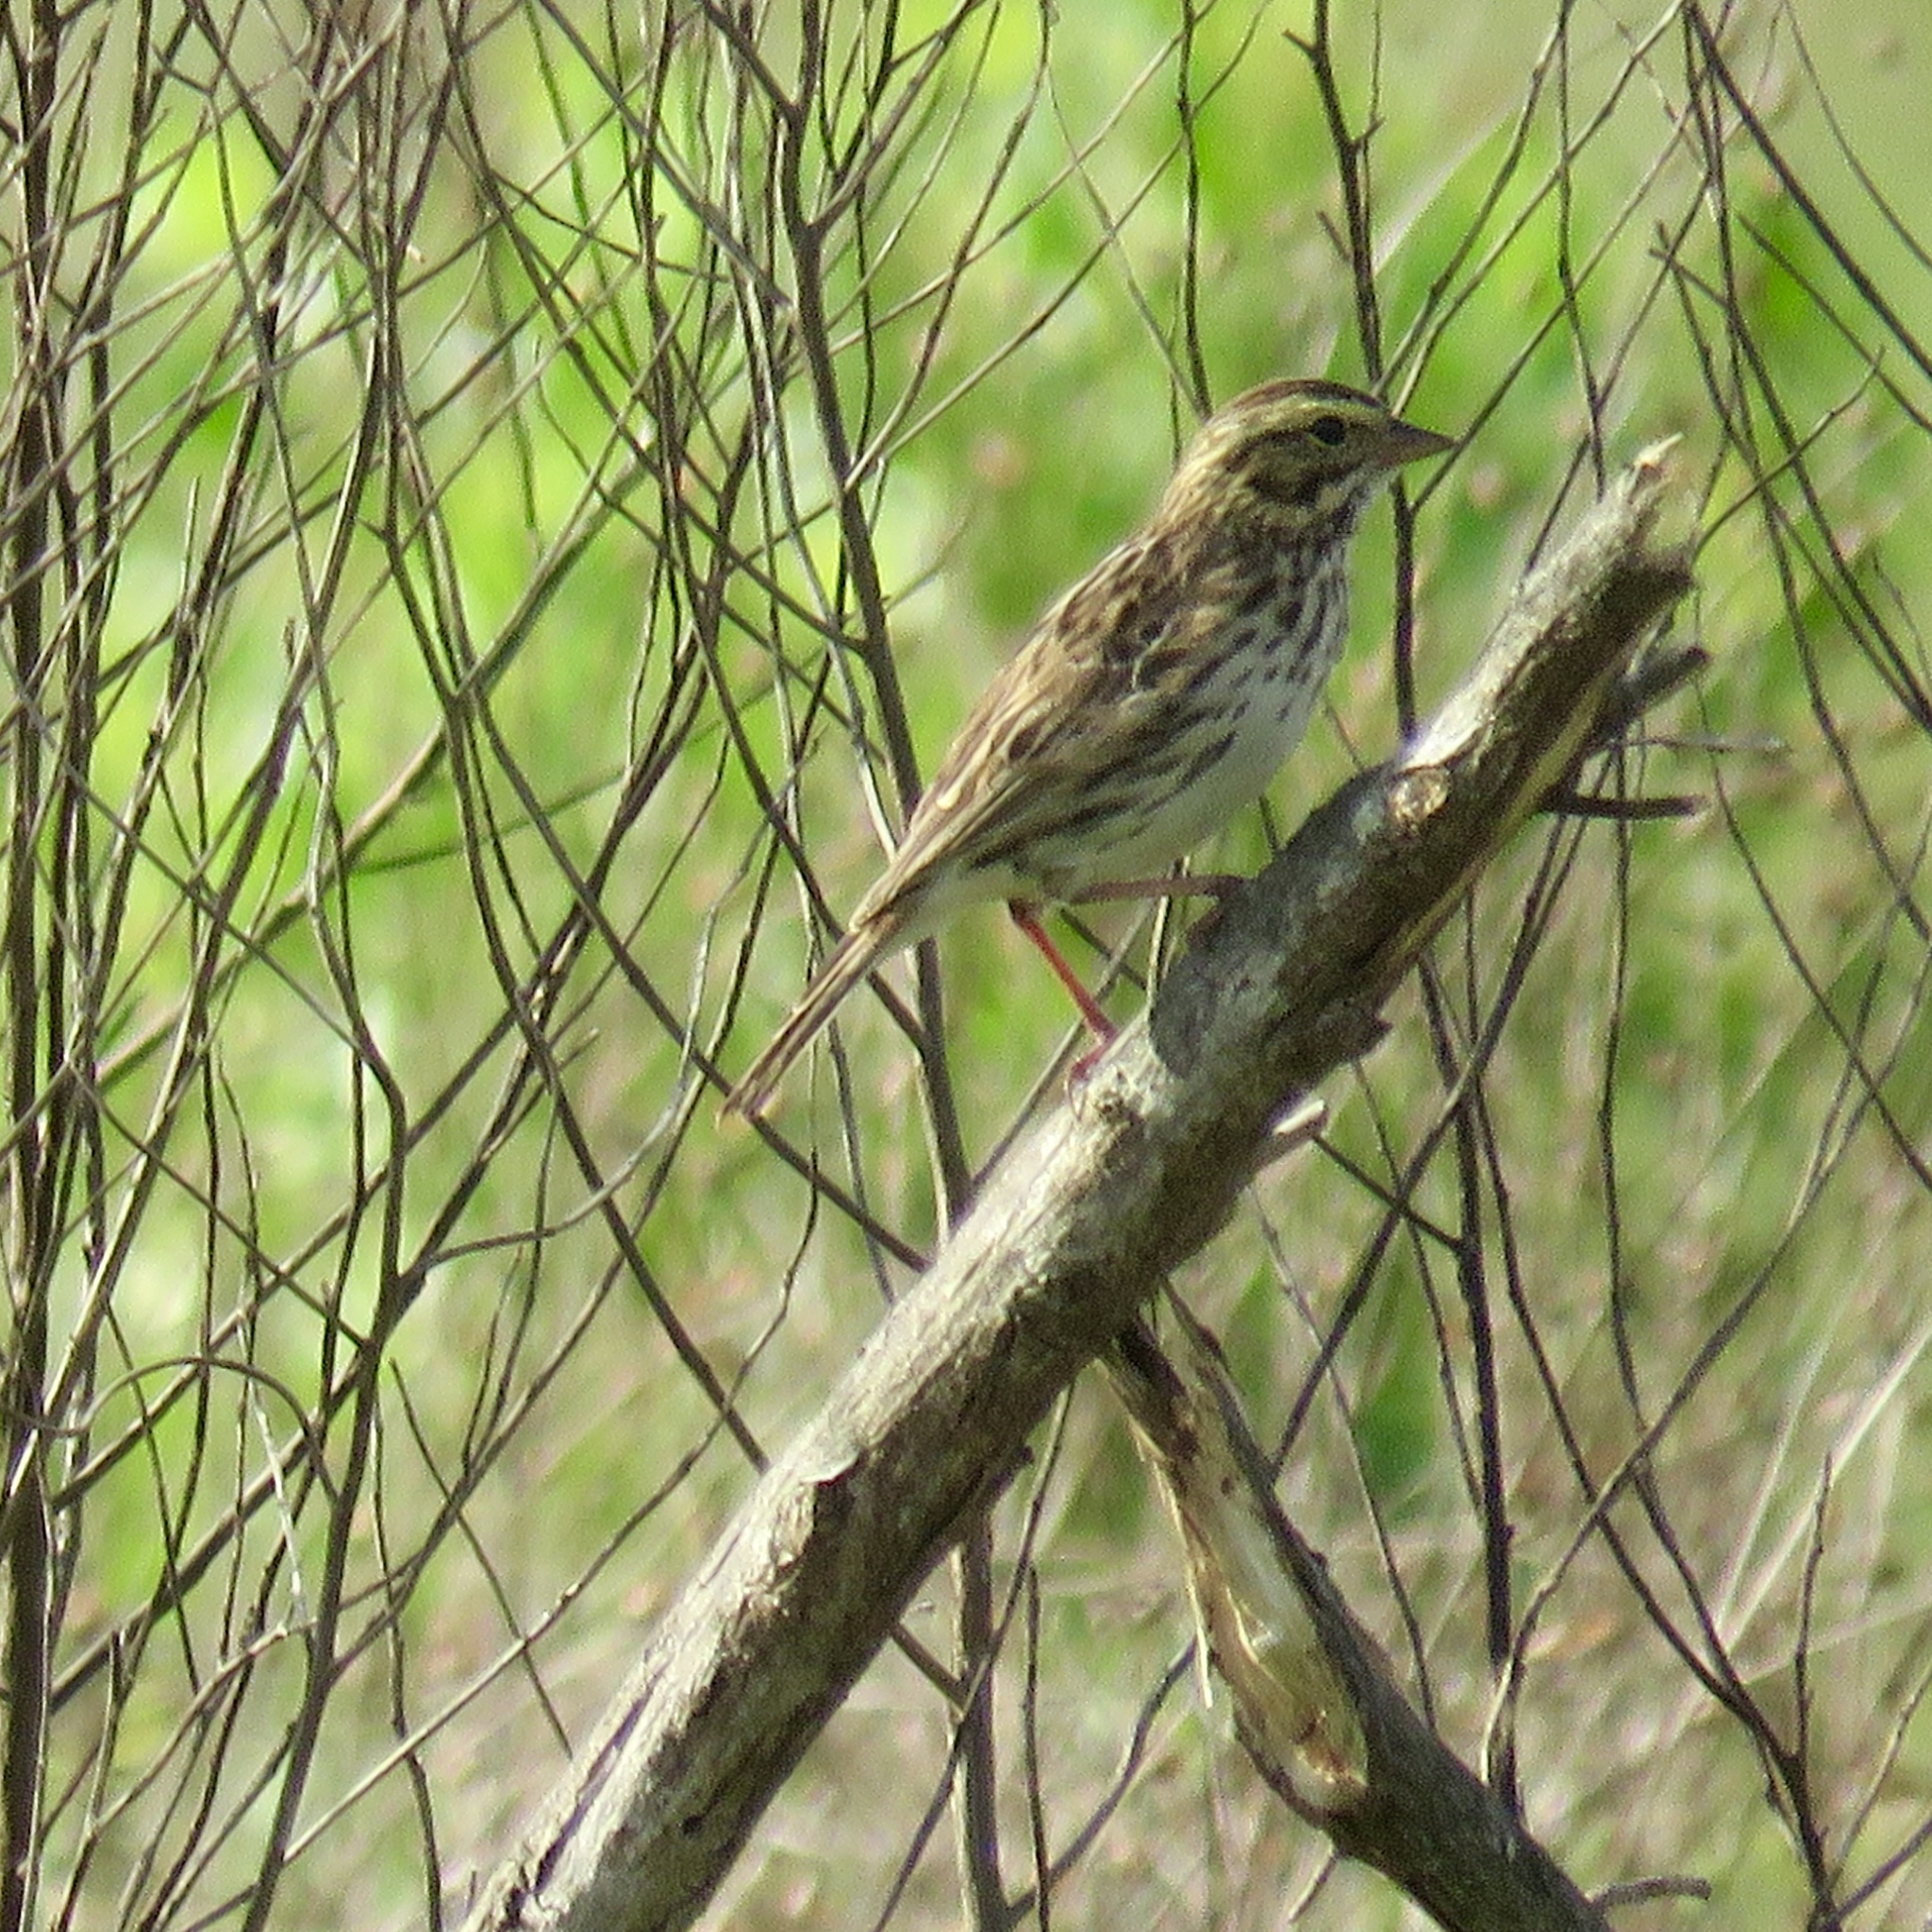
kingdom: Animalia
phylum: Chordata
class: Aves
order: Passeriformes
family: Passerellidae
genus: Passerculus
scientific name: Passerculus sandwichensis
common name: Savannah sparrow
